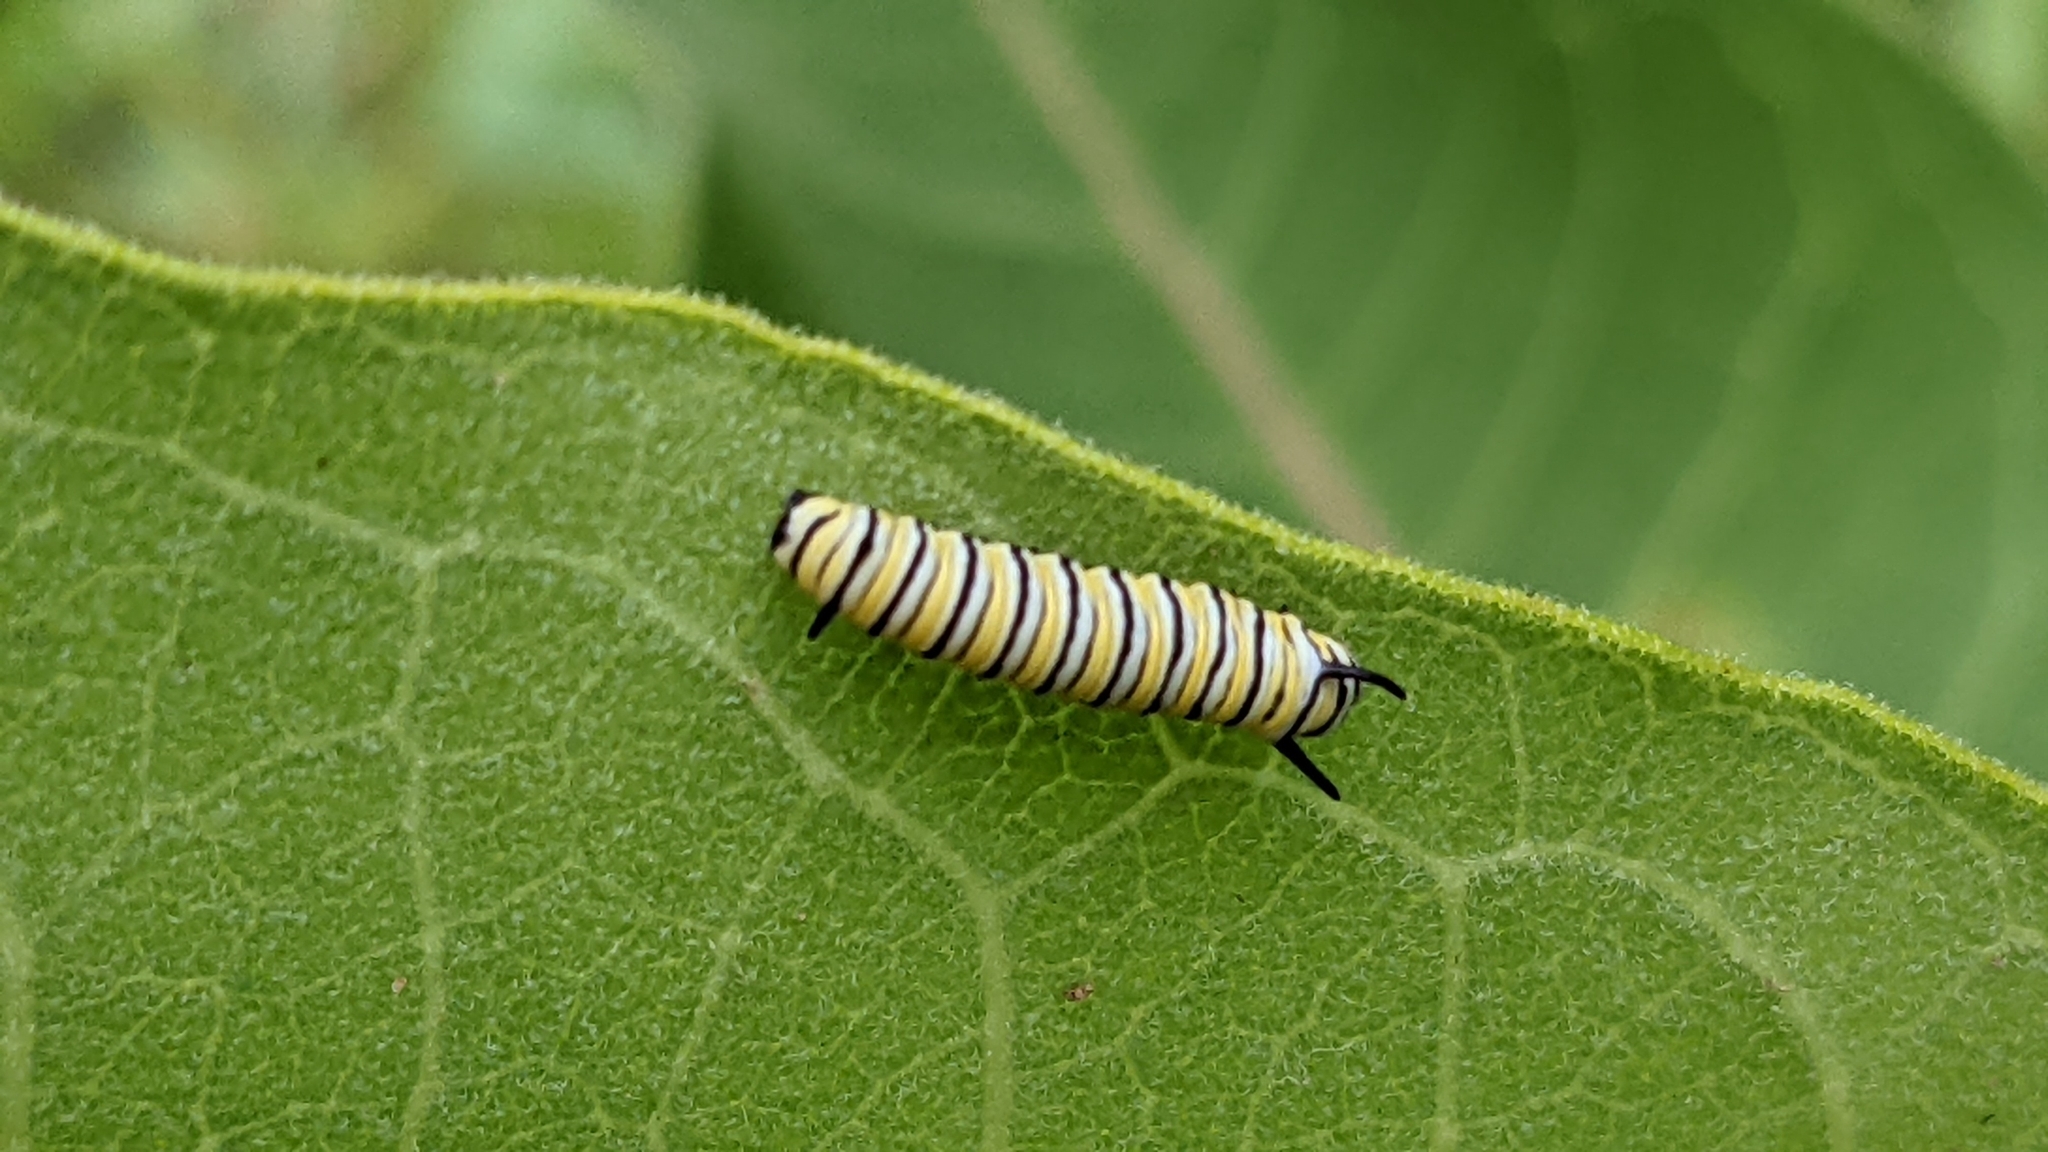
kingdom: Animalia
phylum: Arthropoda
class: Insecta
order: Lepidoptera
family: Nymphalidae
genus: Danaus
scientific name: Danaus plexippus
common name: Monarch
